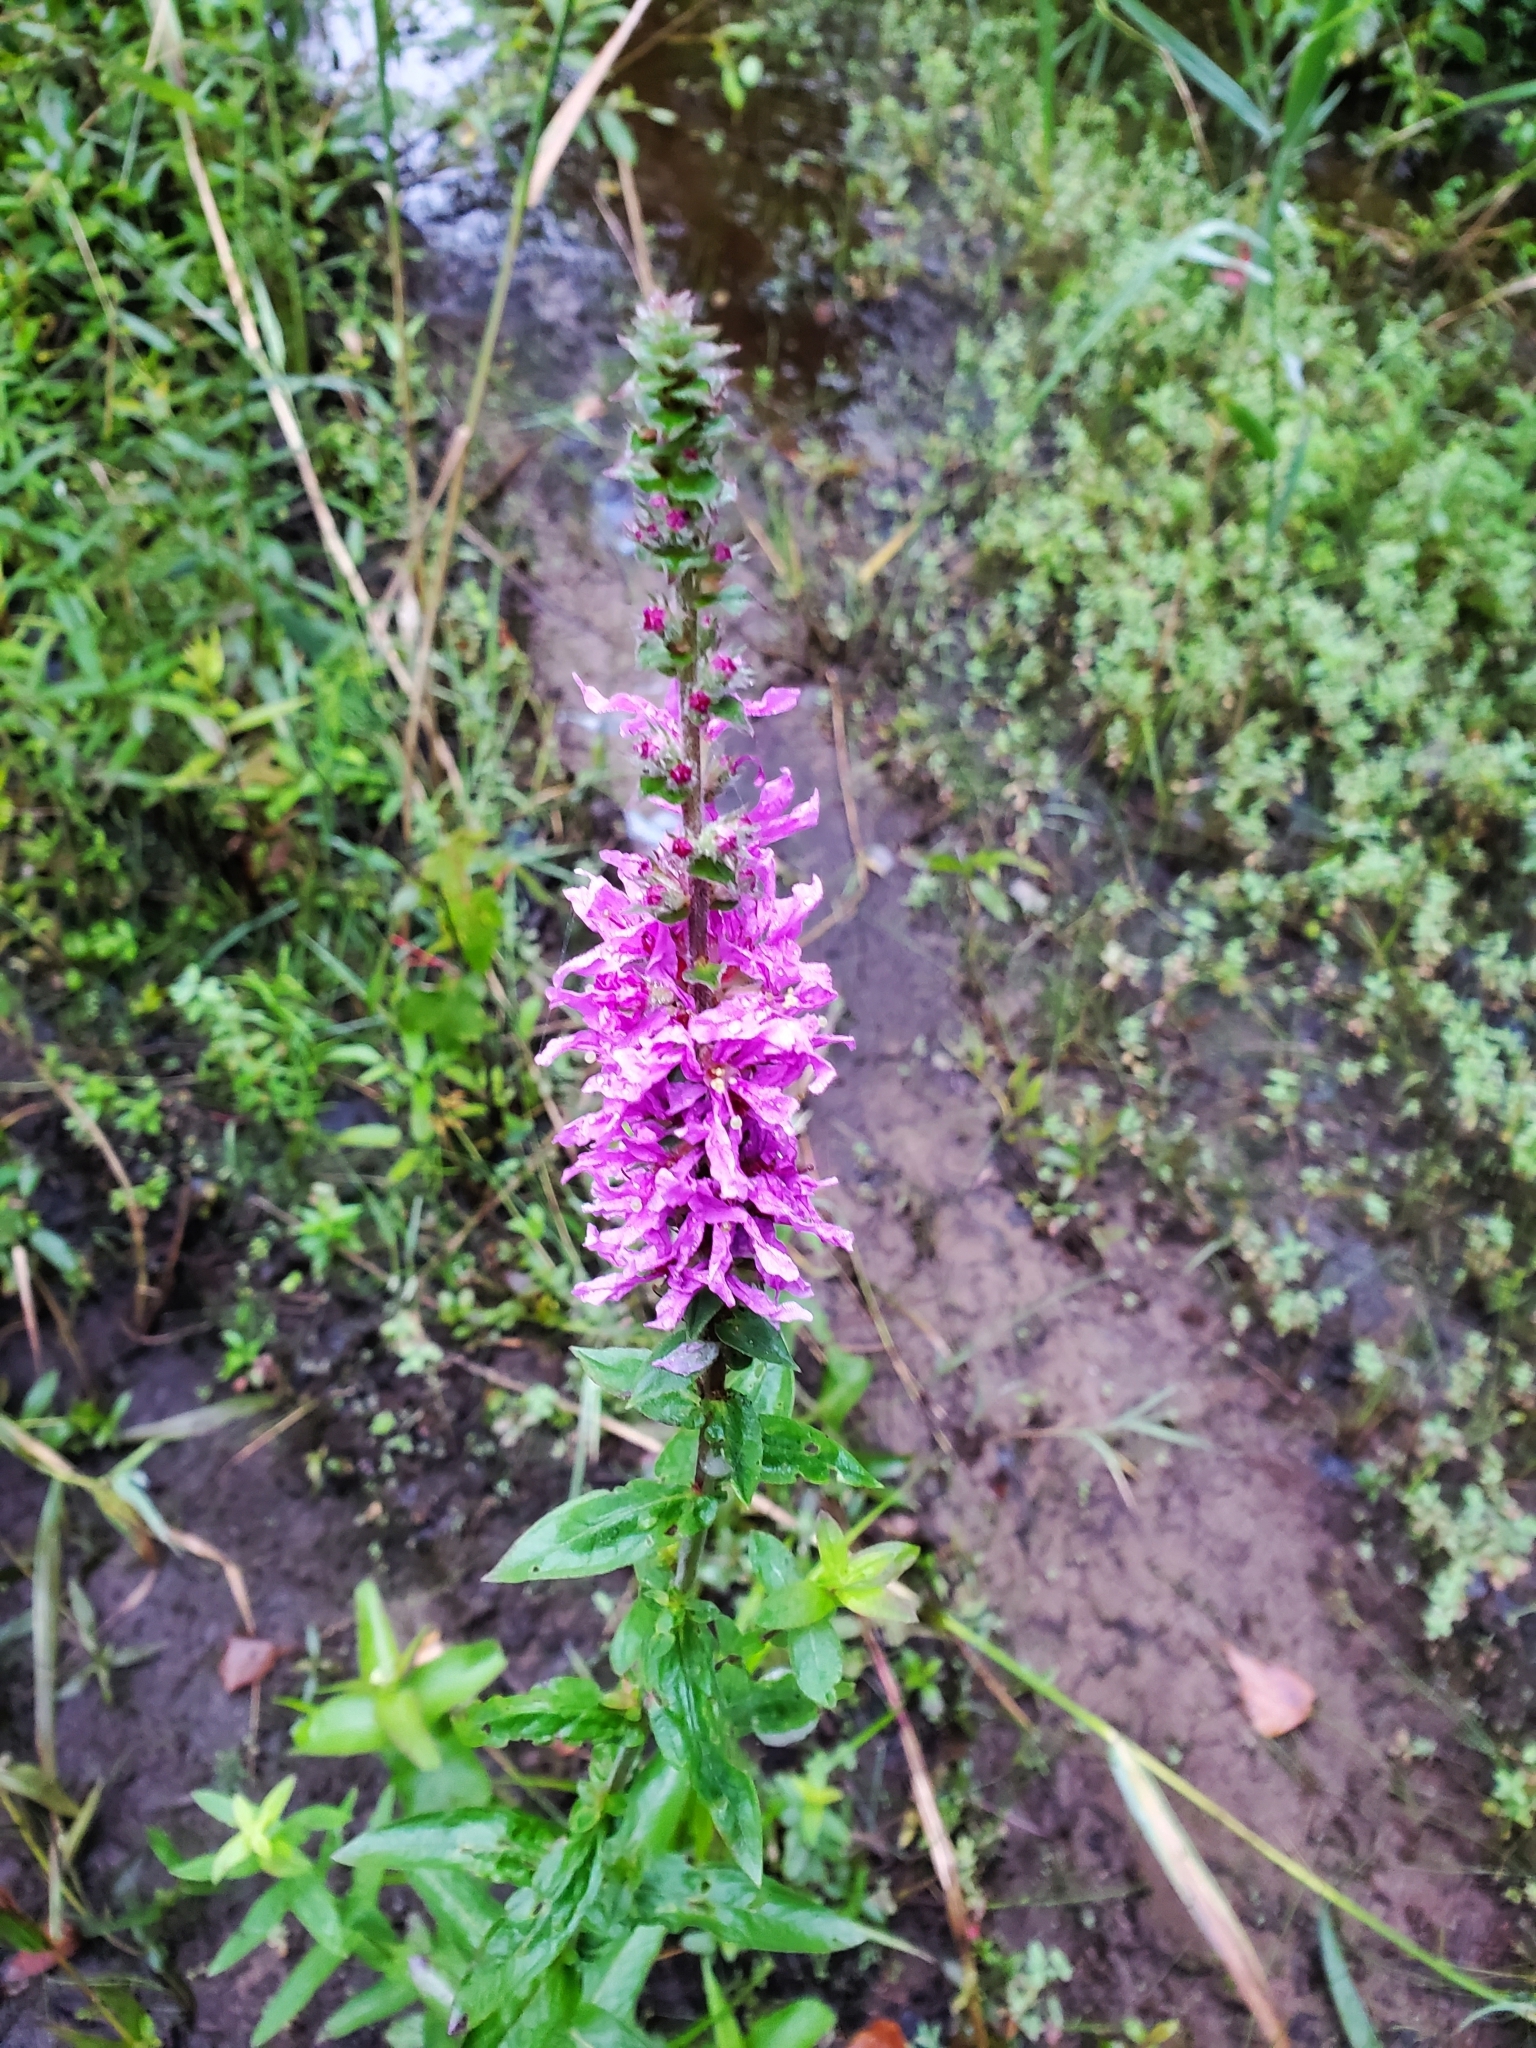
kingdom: Plantae
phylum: Tracheophyta
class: Magnoliopsida
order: Myrtales
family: Lythraceae
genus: Lythrum
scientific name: Lythrum salicaria
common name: Purple loosestrife
